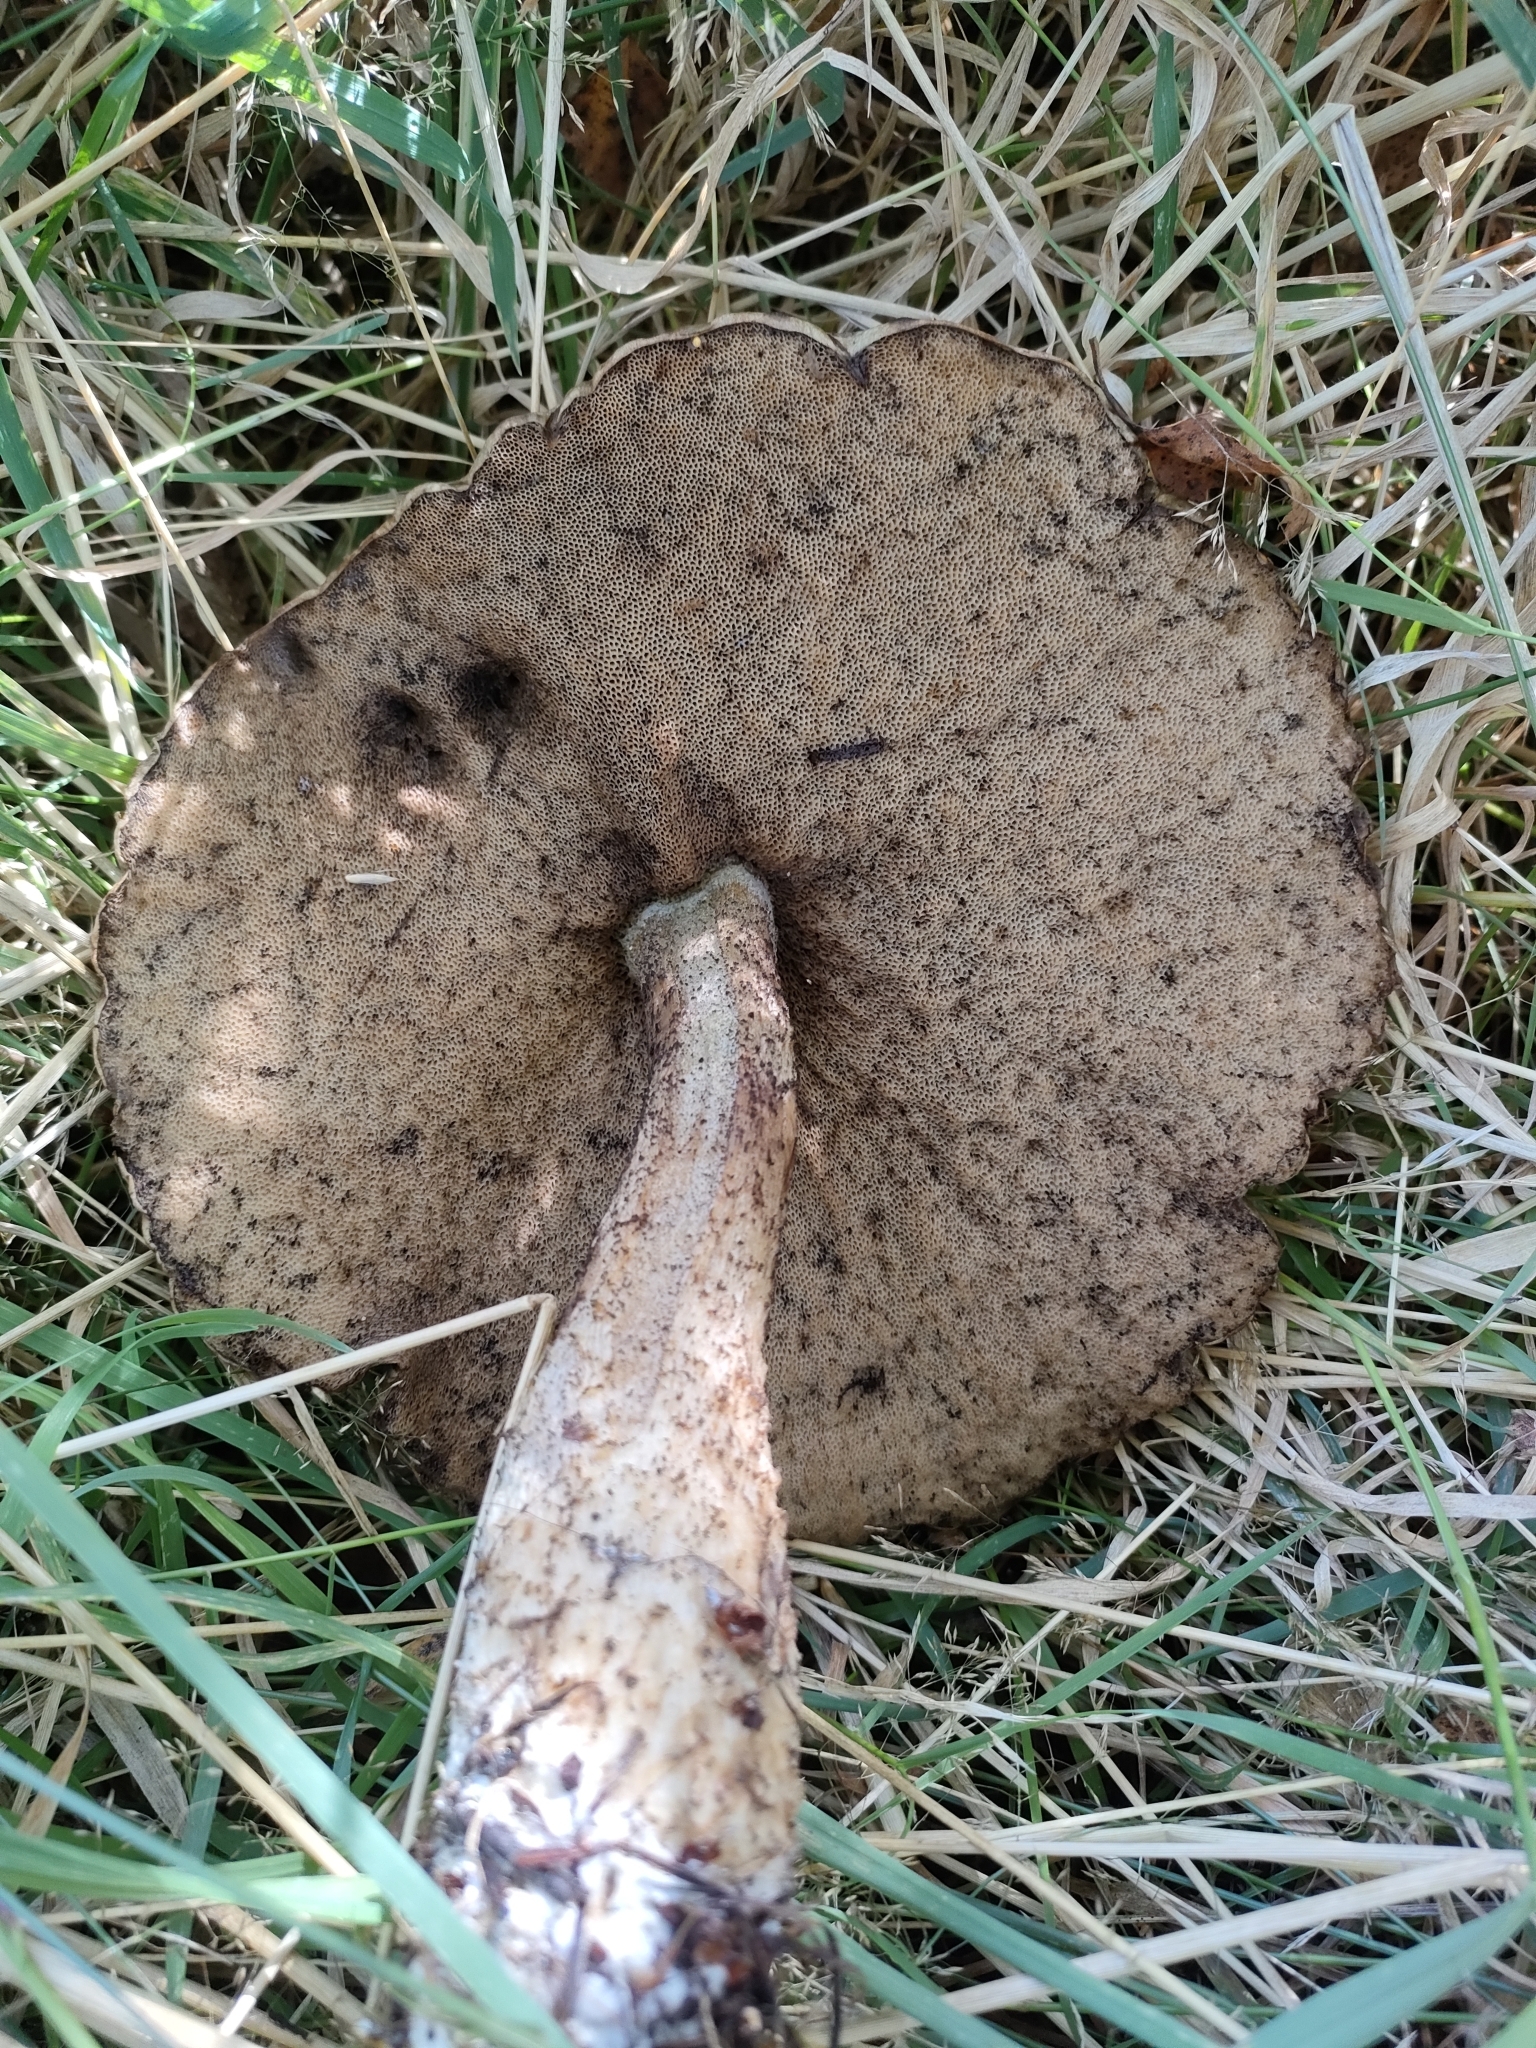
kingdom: Fungi
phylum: Basidiomycota
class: Agaricomycetes
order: Boletales
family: Boletaceae
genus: Leccinum
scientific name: Leccinum scabrum
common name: Blushing bolete
